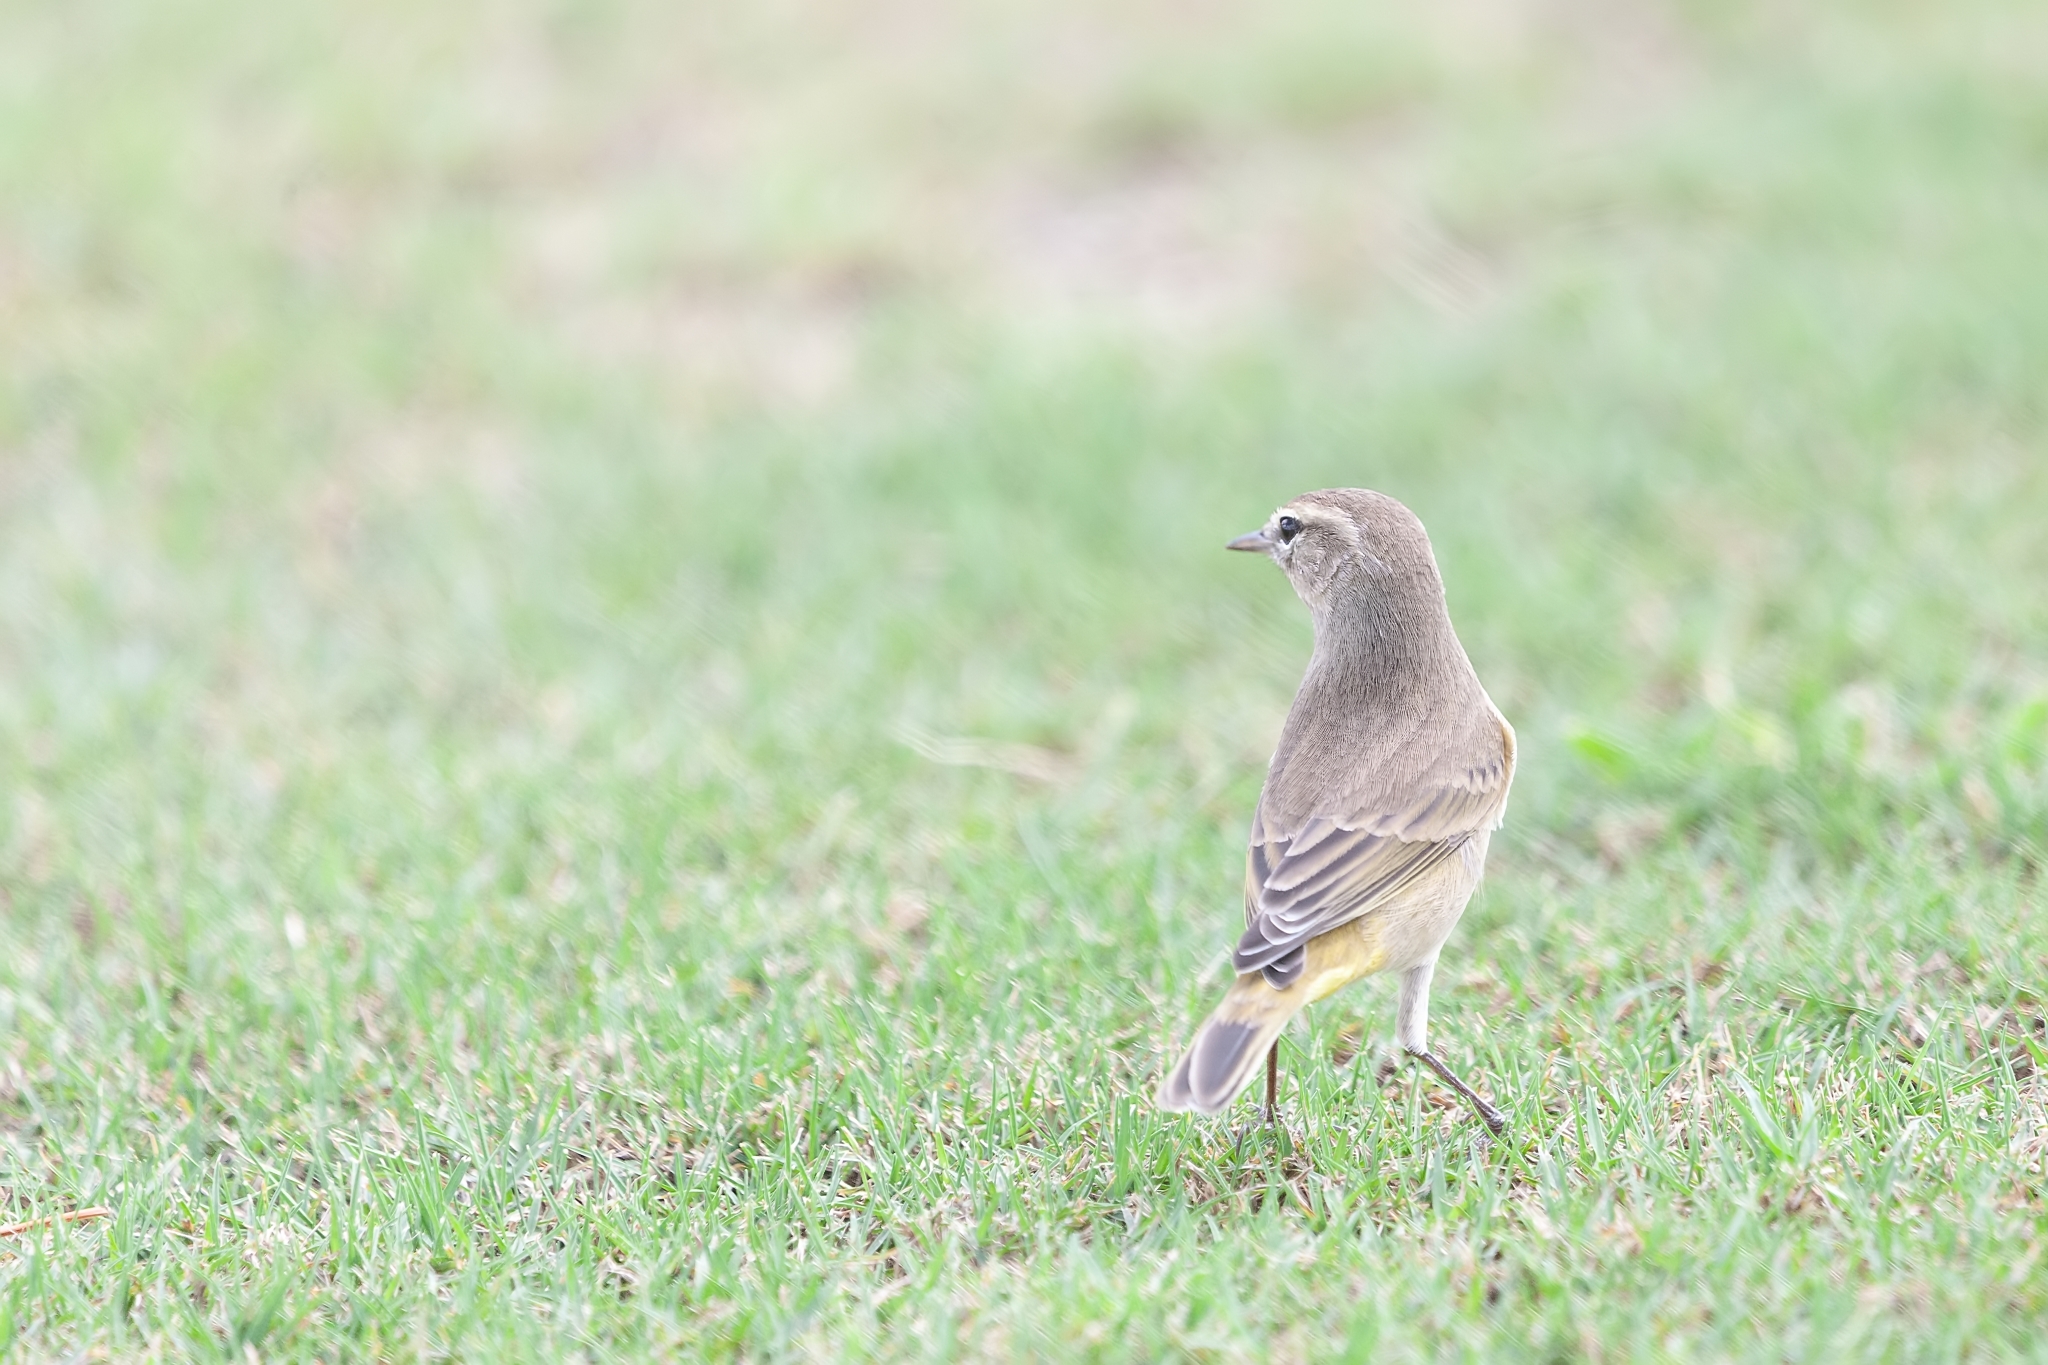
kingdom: Animalia
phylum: Chordata
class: Aves
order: Passeriformes
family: Parulidae
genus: Setophaga
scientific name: Setophaga palmarum
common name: Palm warbler
